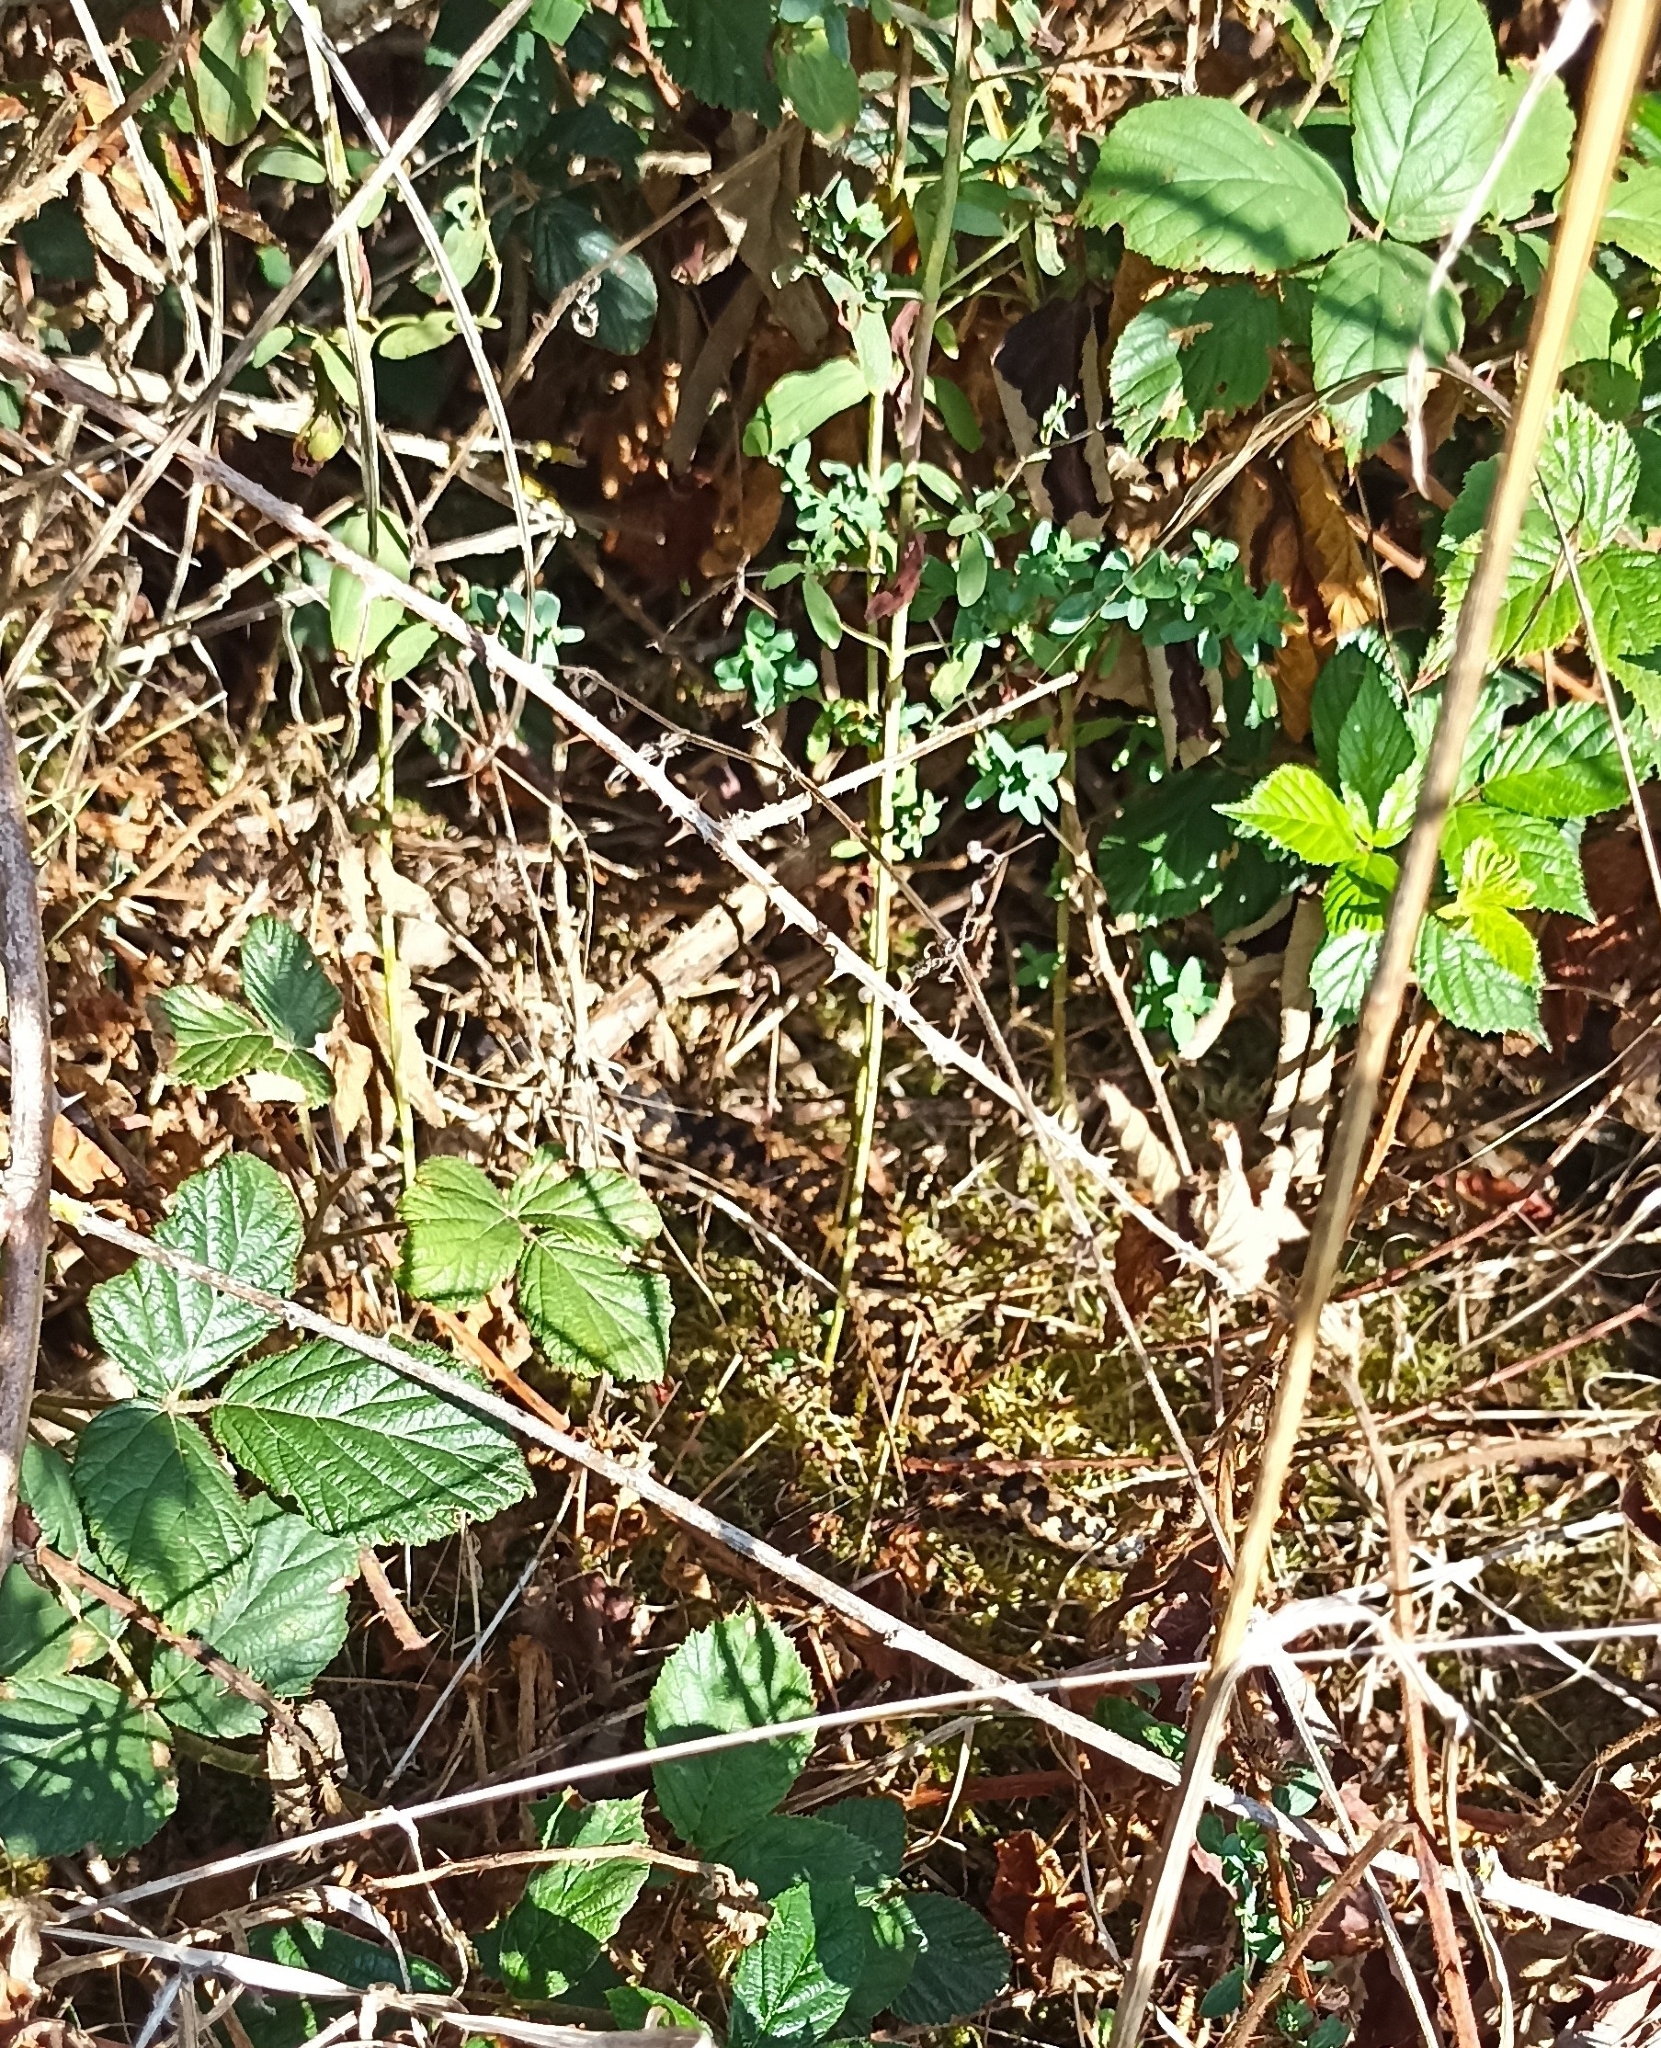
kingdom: Animalia
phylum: Chordata
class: Squamata
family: Viperidae
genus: Vipera
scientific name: Vipera berus
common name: Adder
